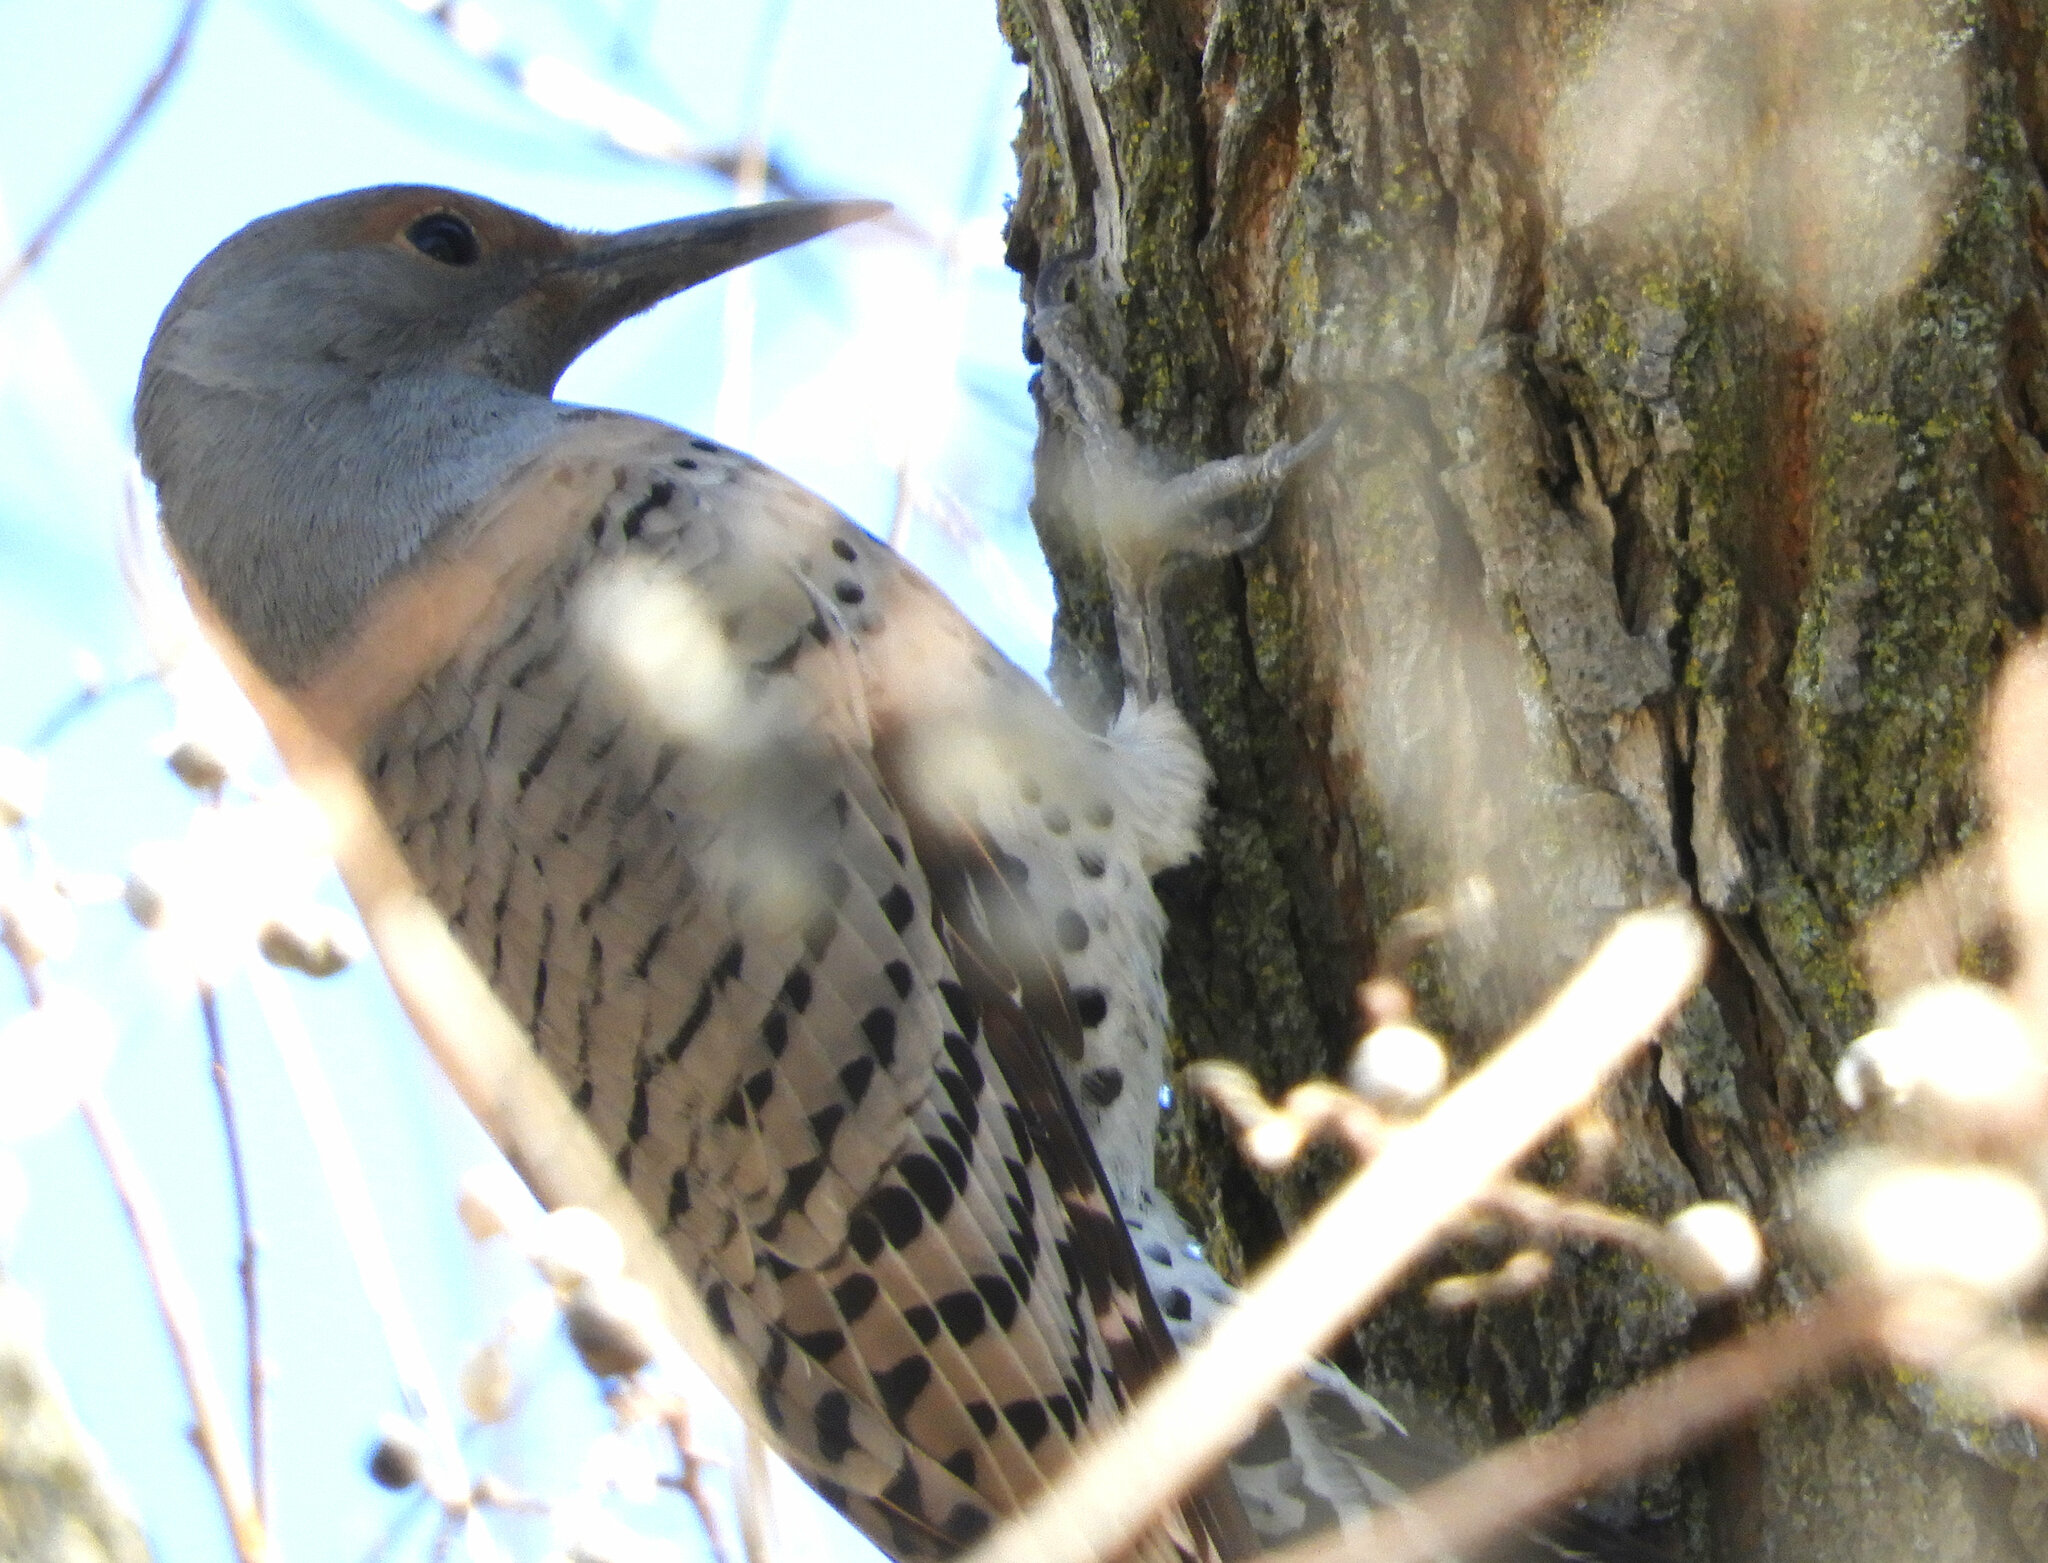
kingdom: Animalia
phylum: Chordata
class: Aves
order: Piciformes
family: Picidae
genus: Colaptes
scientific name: Colaptes auratus
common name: Northern flicker
